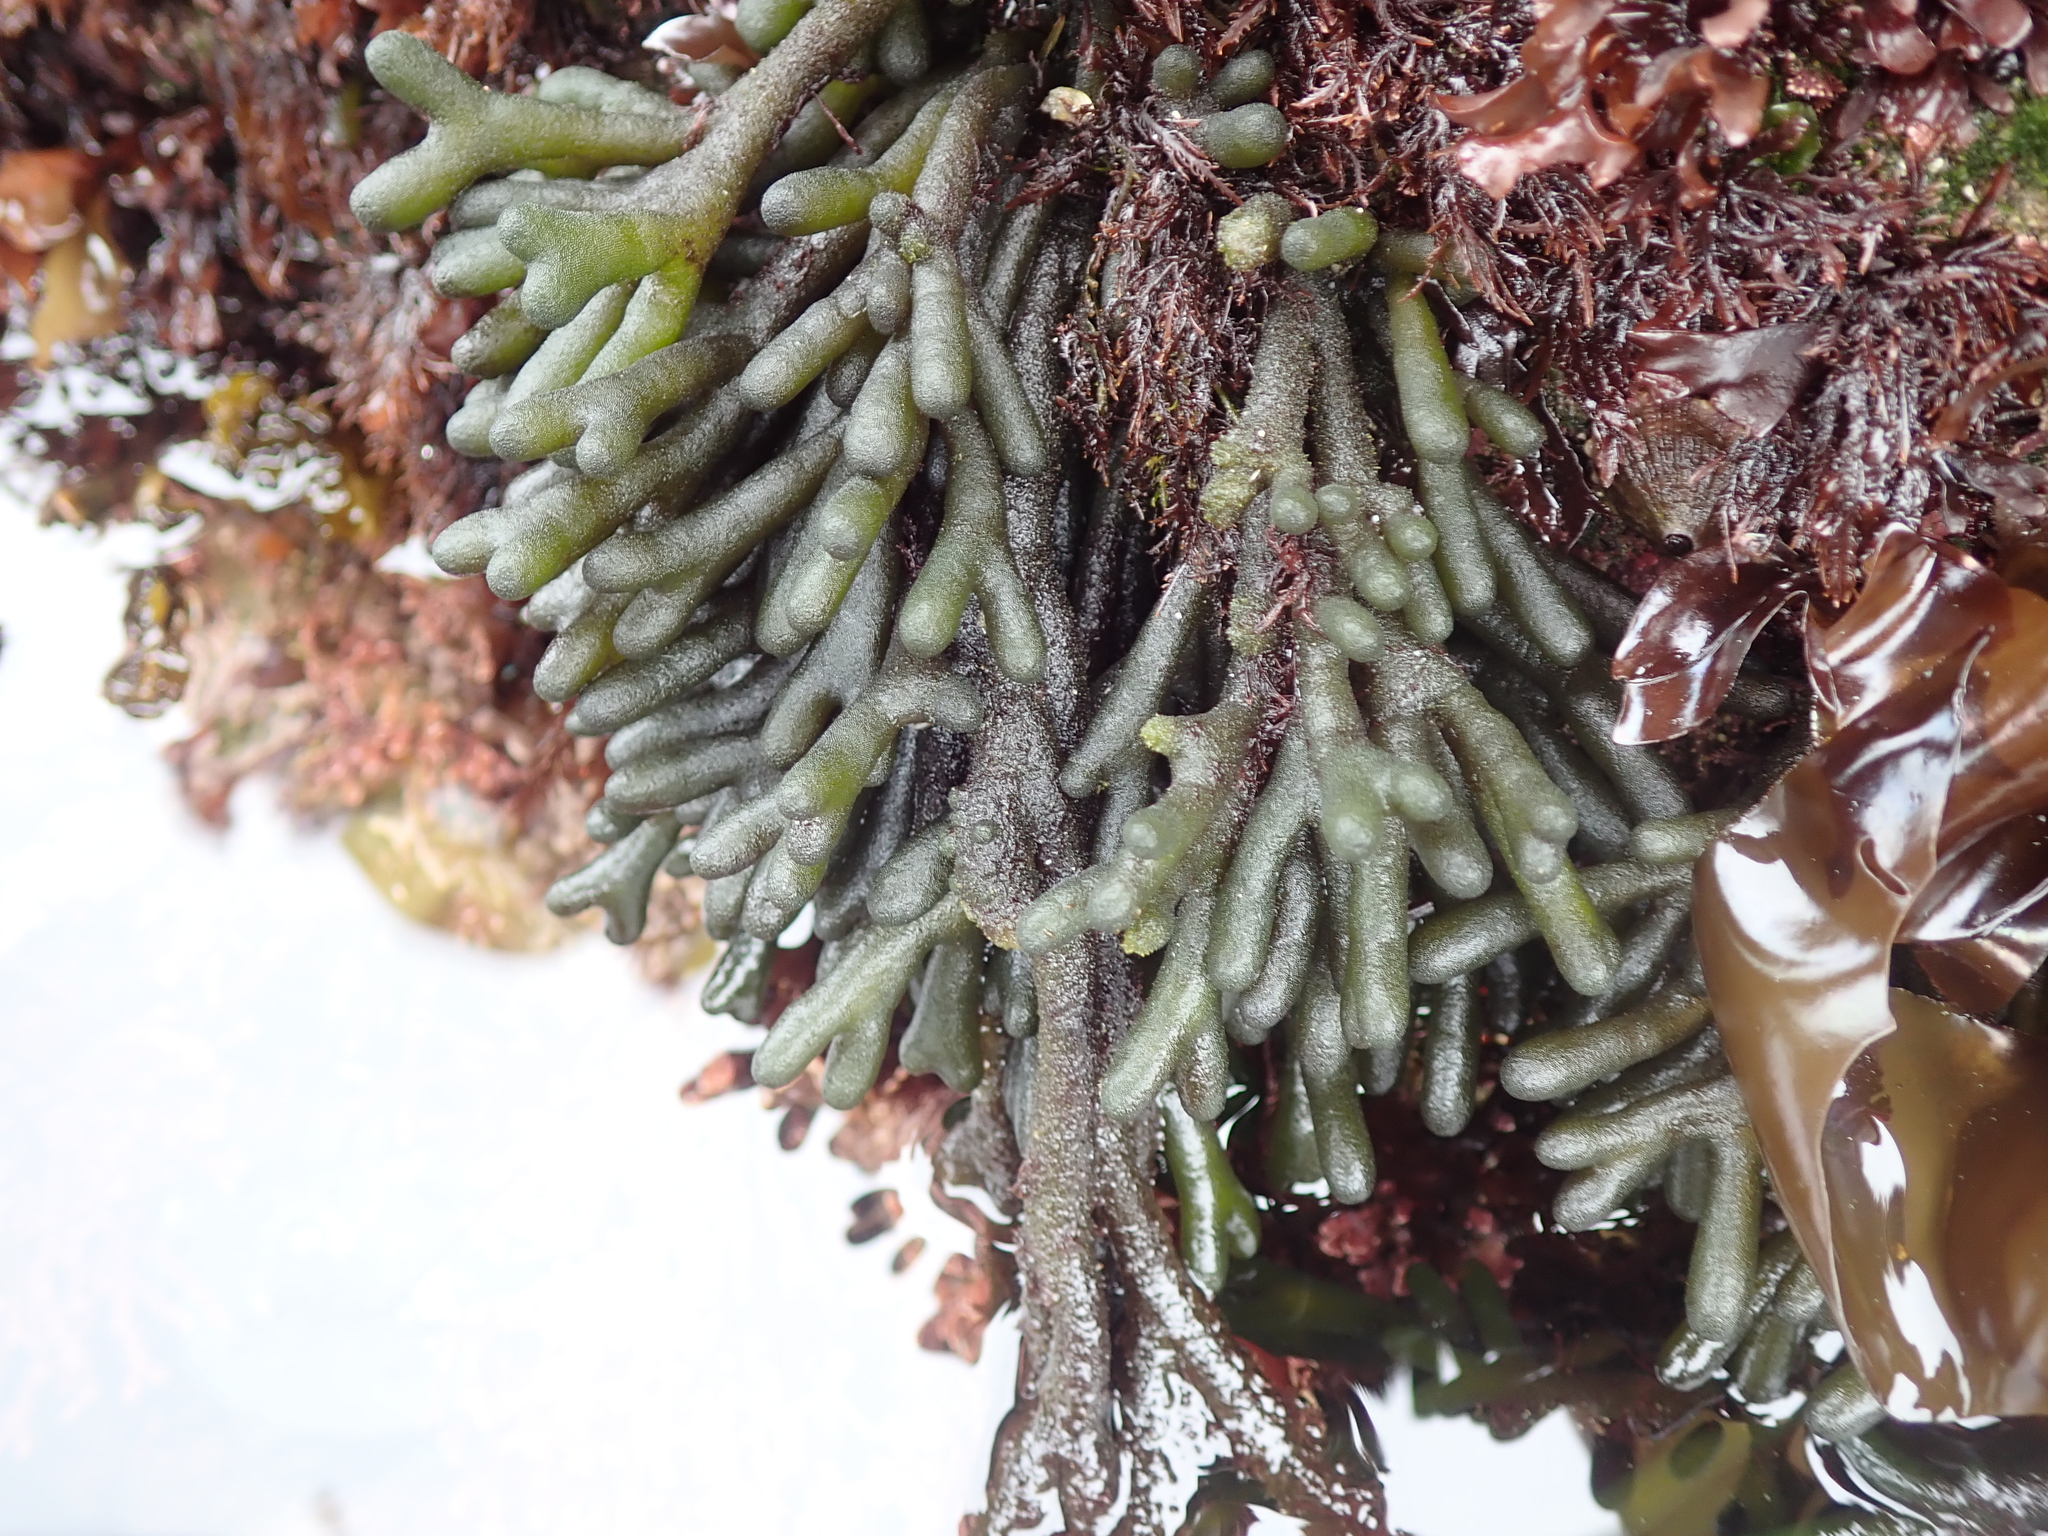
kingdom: Plantae
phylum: Chlorophyta
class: Ulvophyceae
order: Bryopsidales
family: Codiaceae
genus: Codium
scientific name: Codium fragile
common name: Dead man's fingers
